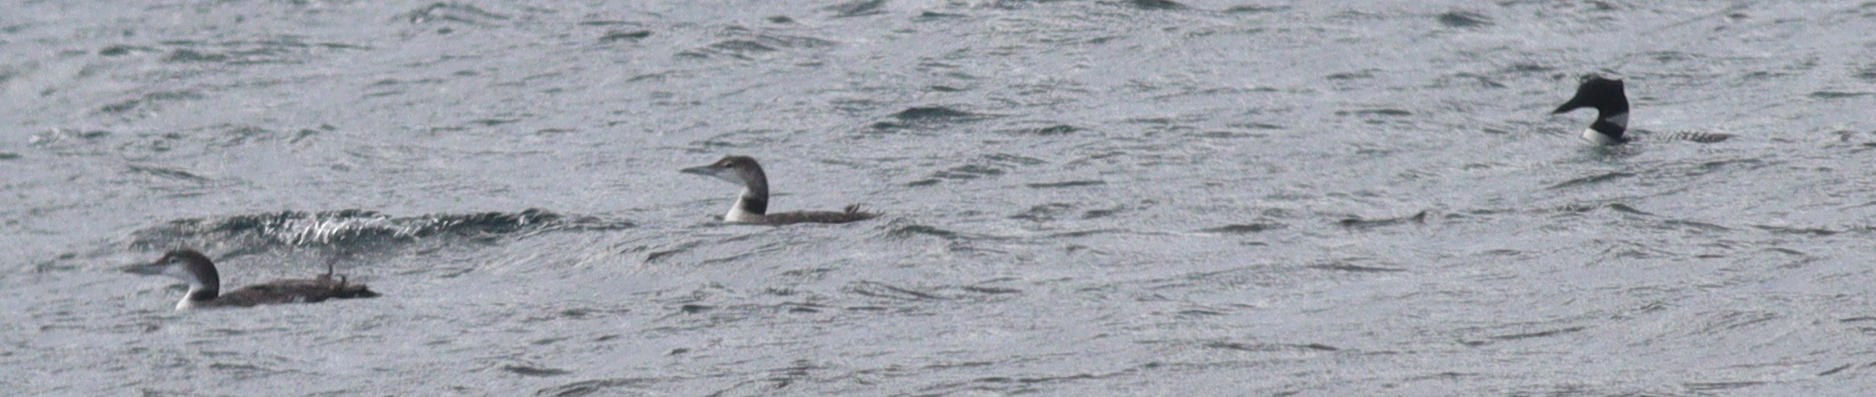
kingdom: Animalia
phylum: Chordata
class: Aves
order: Gaviiformes
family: Gaviidae
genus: Gavia
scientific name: Gavia immer
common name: Common loon
